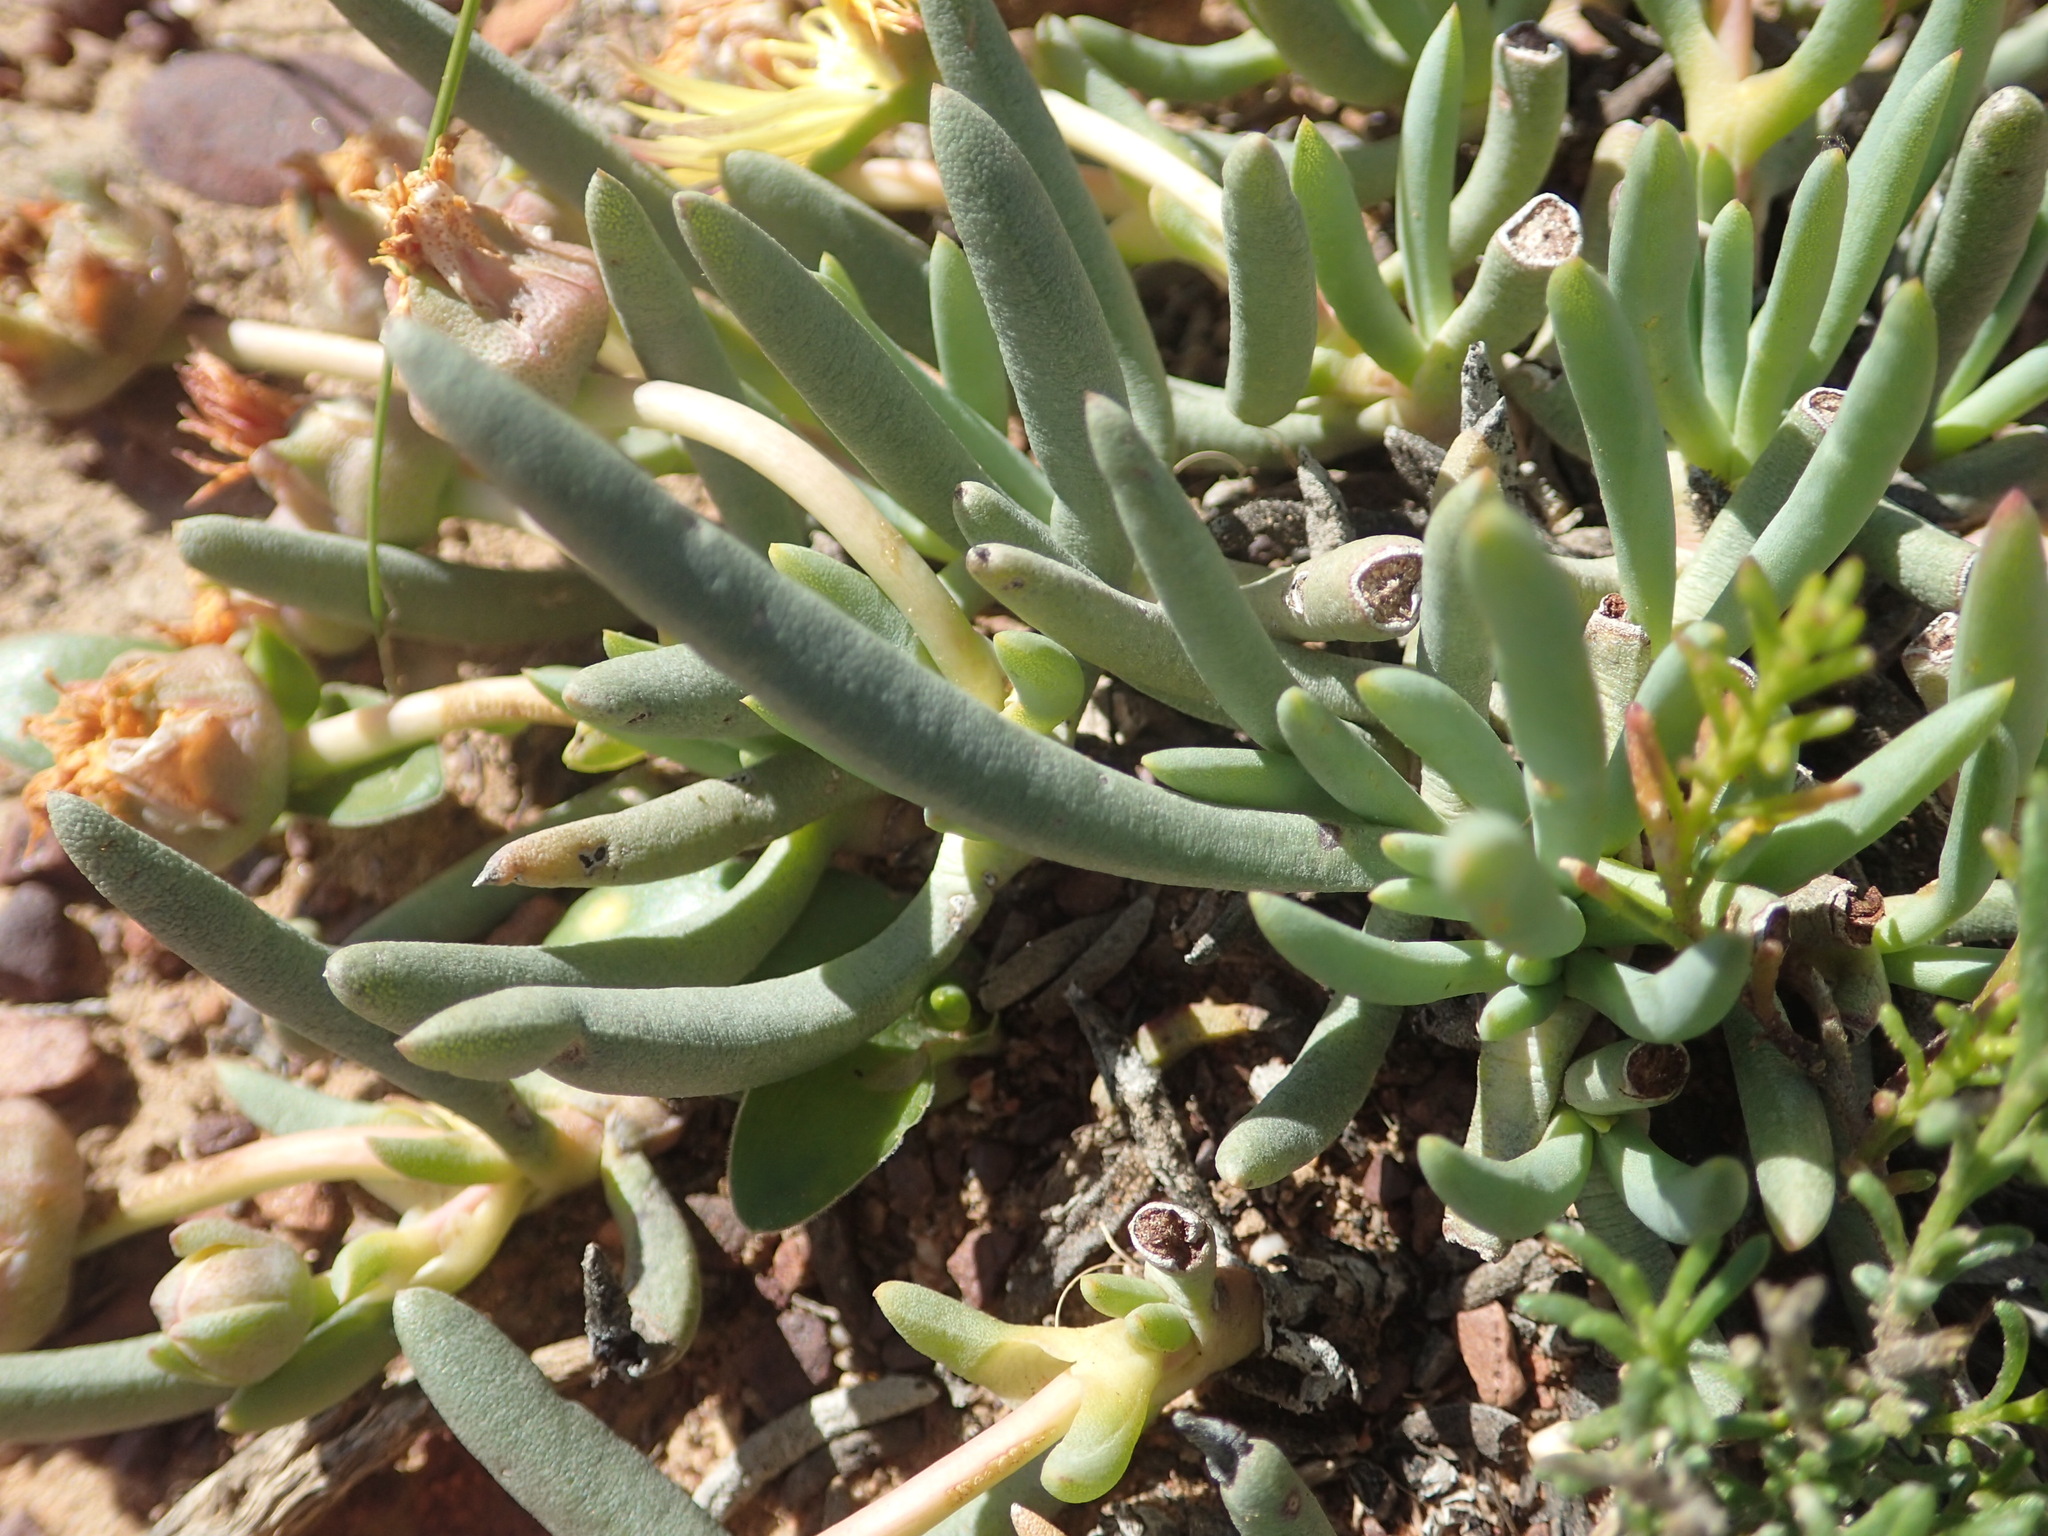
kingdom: Plantae
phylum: Tracheophyta
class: Magnoliopsida
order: Caryophyllales
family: Aizoaceae
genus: Cheiridopsis
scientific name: Cheiridopsis namaquensis
